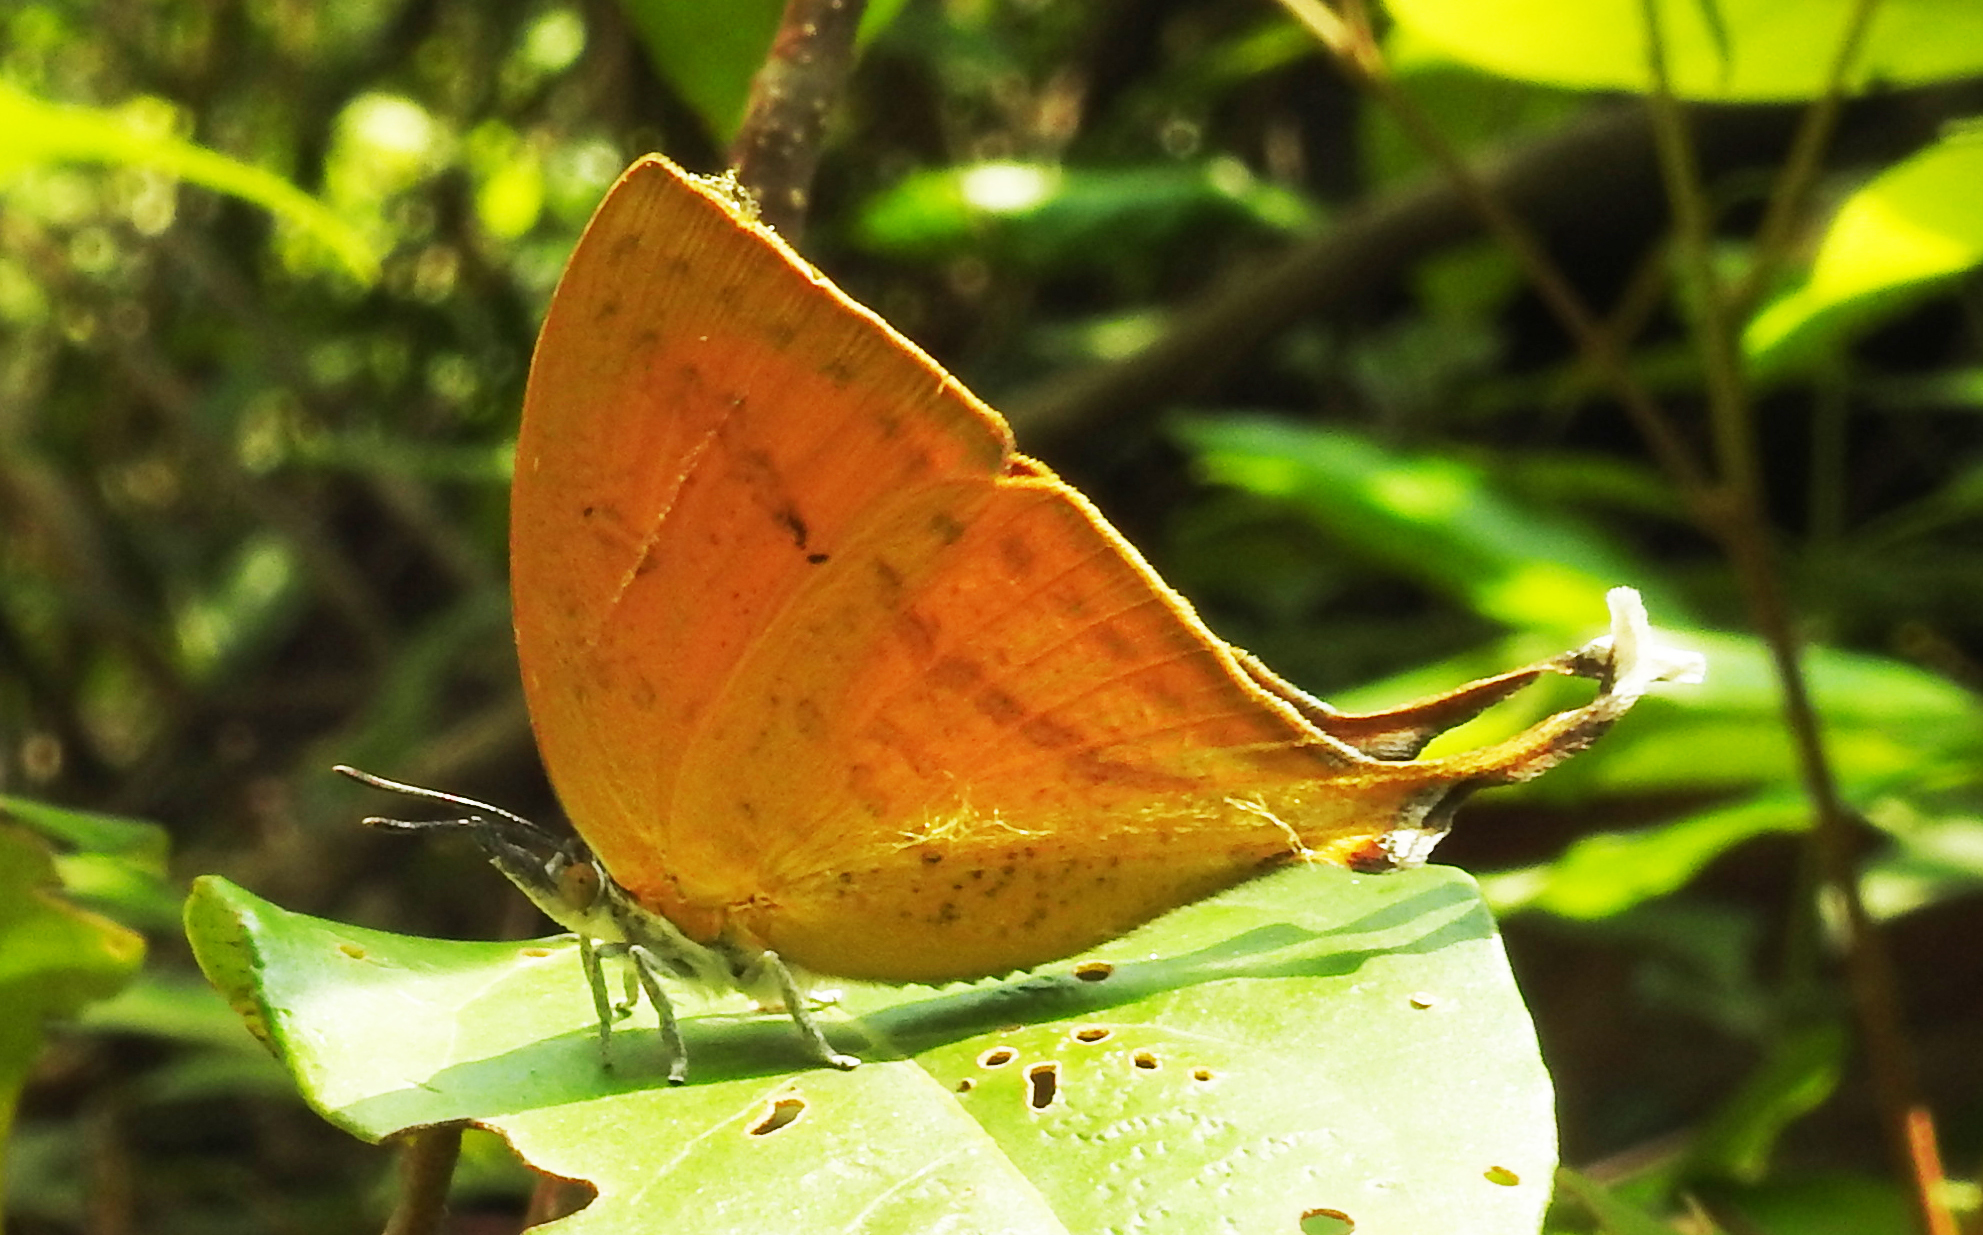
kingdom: Animalia
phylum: Arthropoda
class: Insecta
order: Lepidoptera
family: Lycaenidae
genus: Loxura
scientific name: Loxura atymnus
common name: Common yamfly
